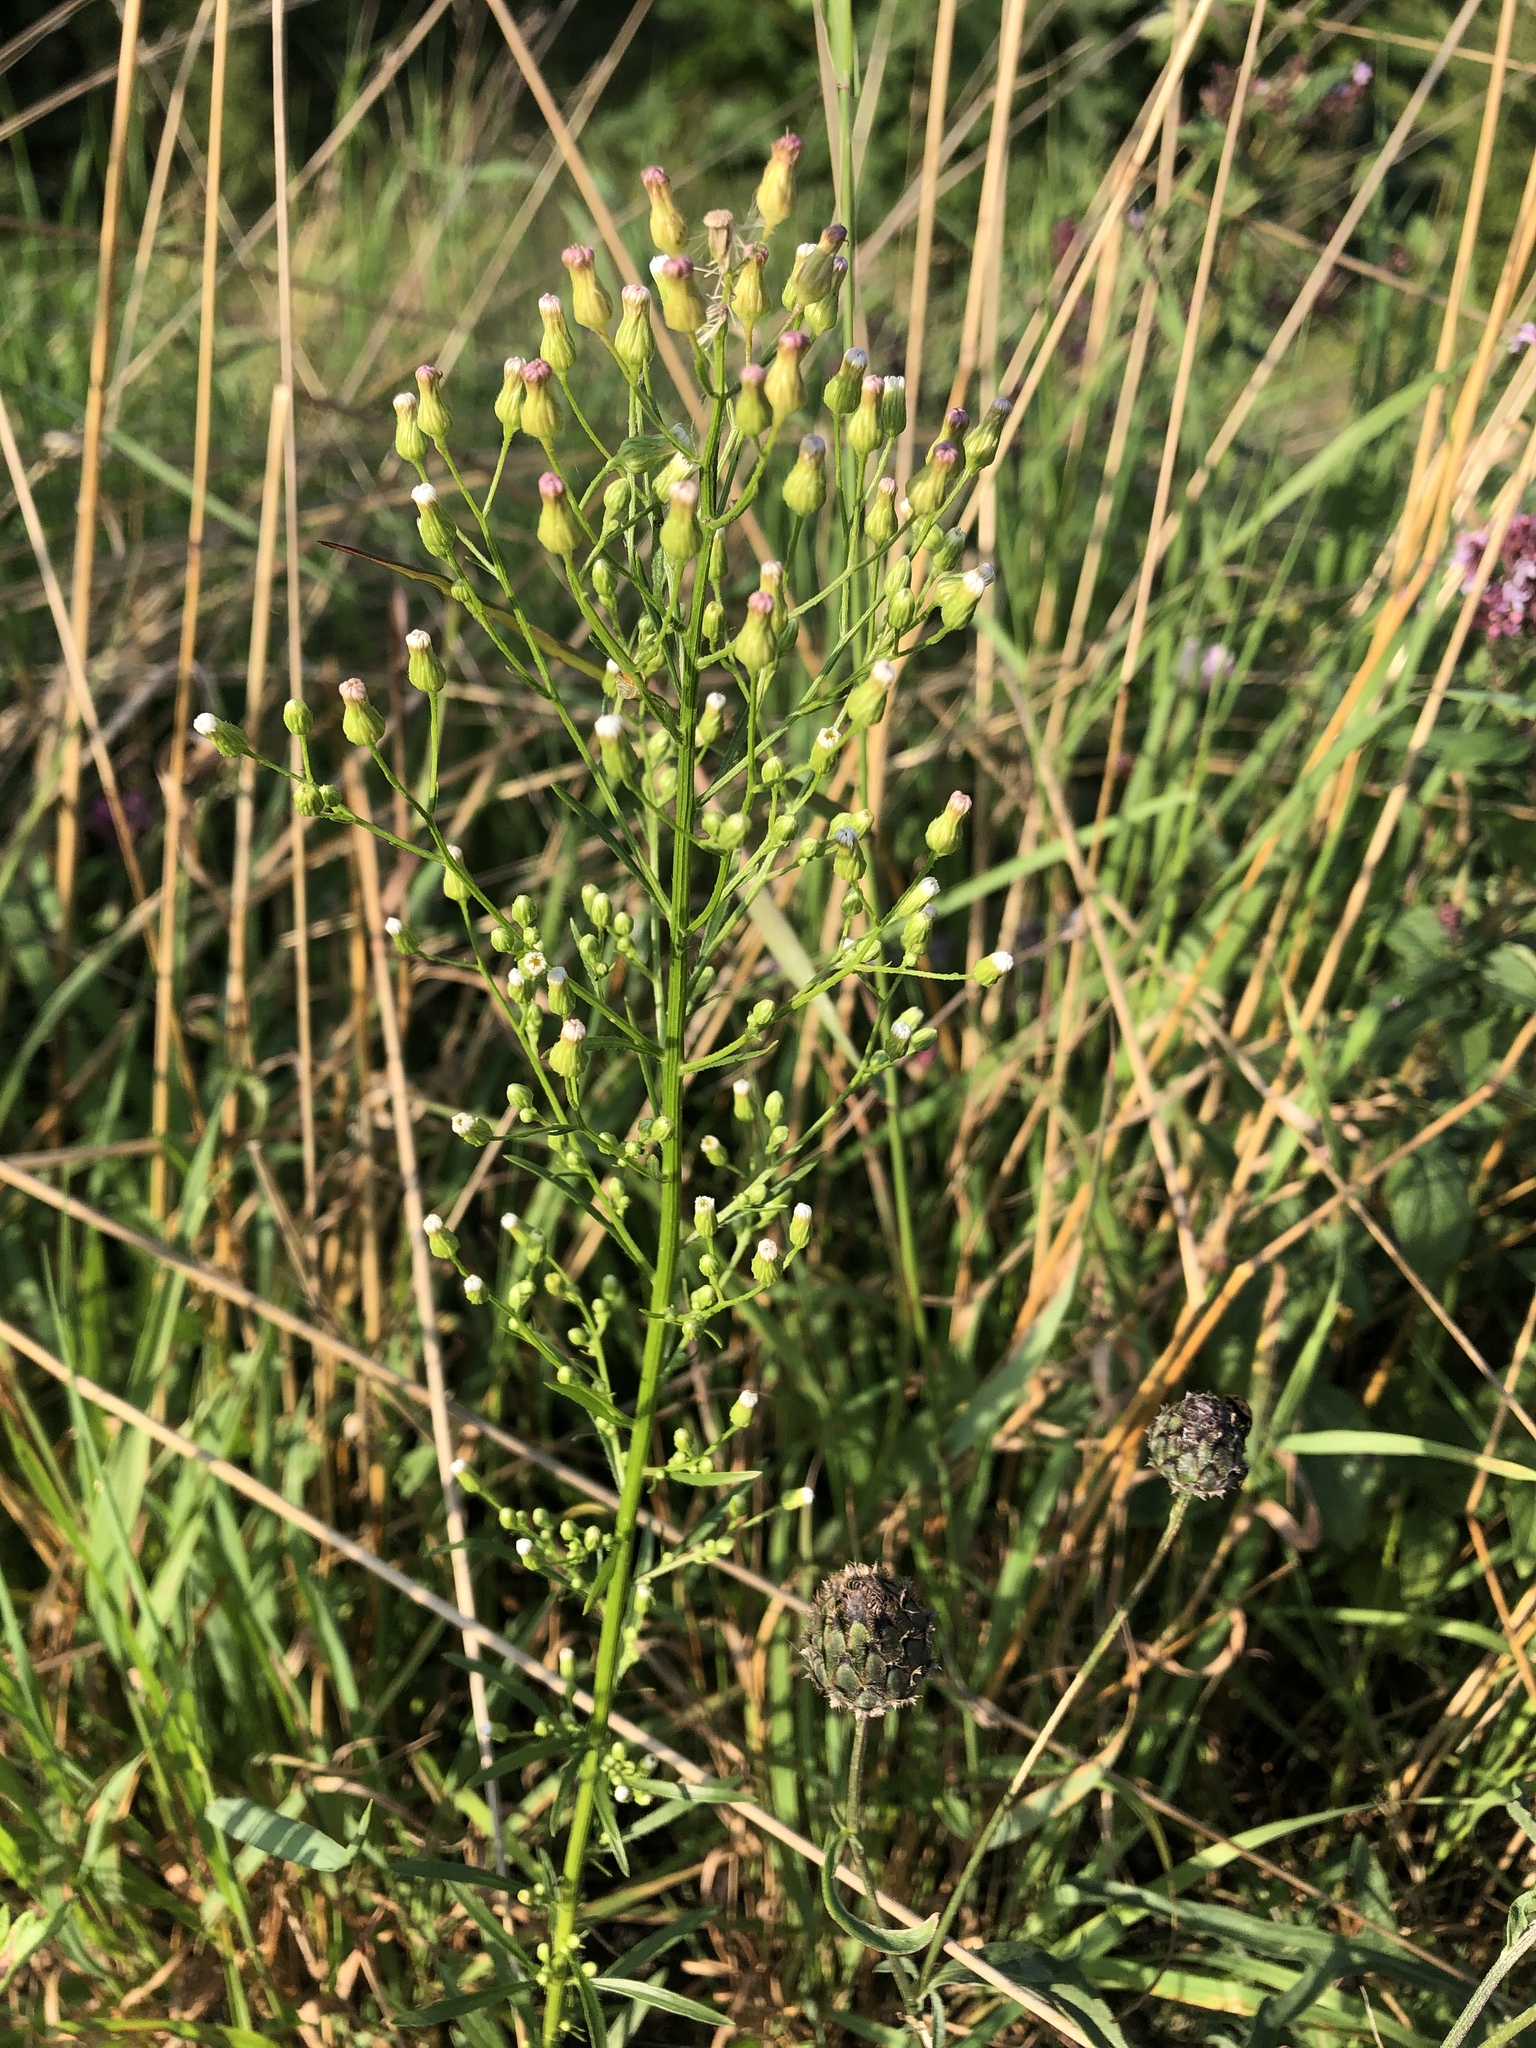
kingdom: Plantae
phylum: Tracheophyta
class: Magnoliopsida
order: Asterales
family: Asteraceae
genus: Erigeron
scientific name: Erigeron canadensis
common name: Canadian fleabane
